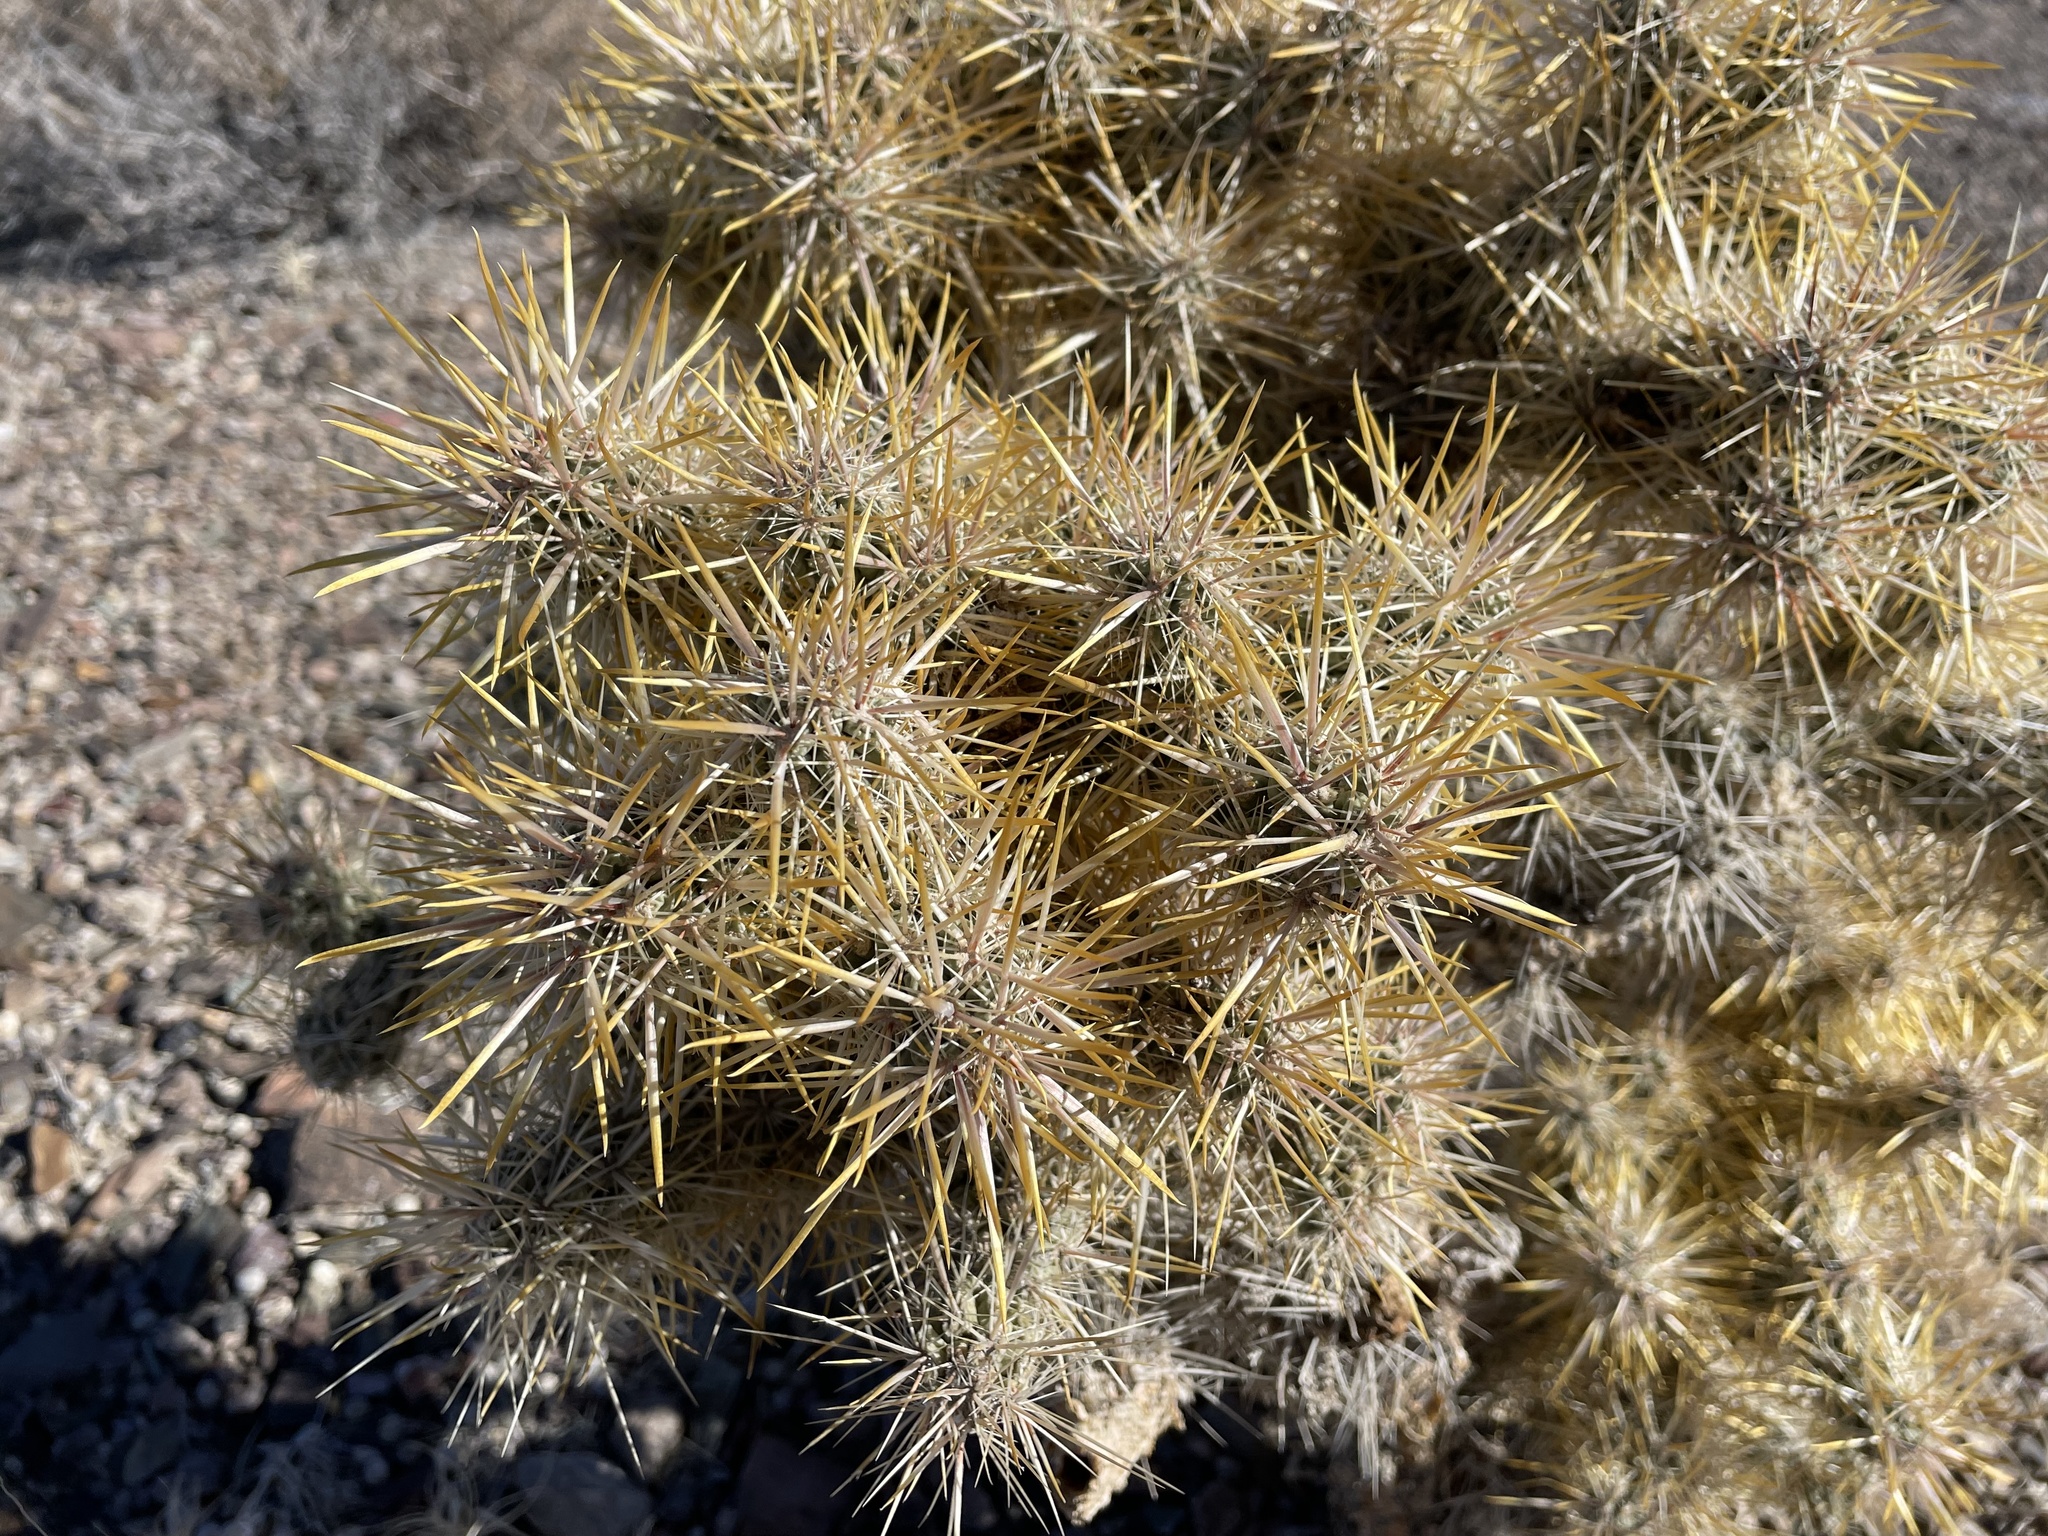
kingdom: Plantae
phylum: Tracheophyta
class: Magnoliopsida
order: Caryophyllales
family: Cactaceae
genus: Cylindropuntia
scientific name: Cylindropuntia echinocarpa
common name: Ground cholla
